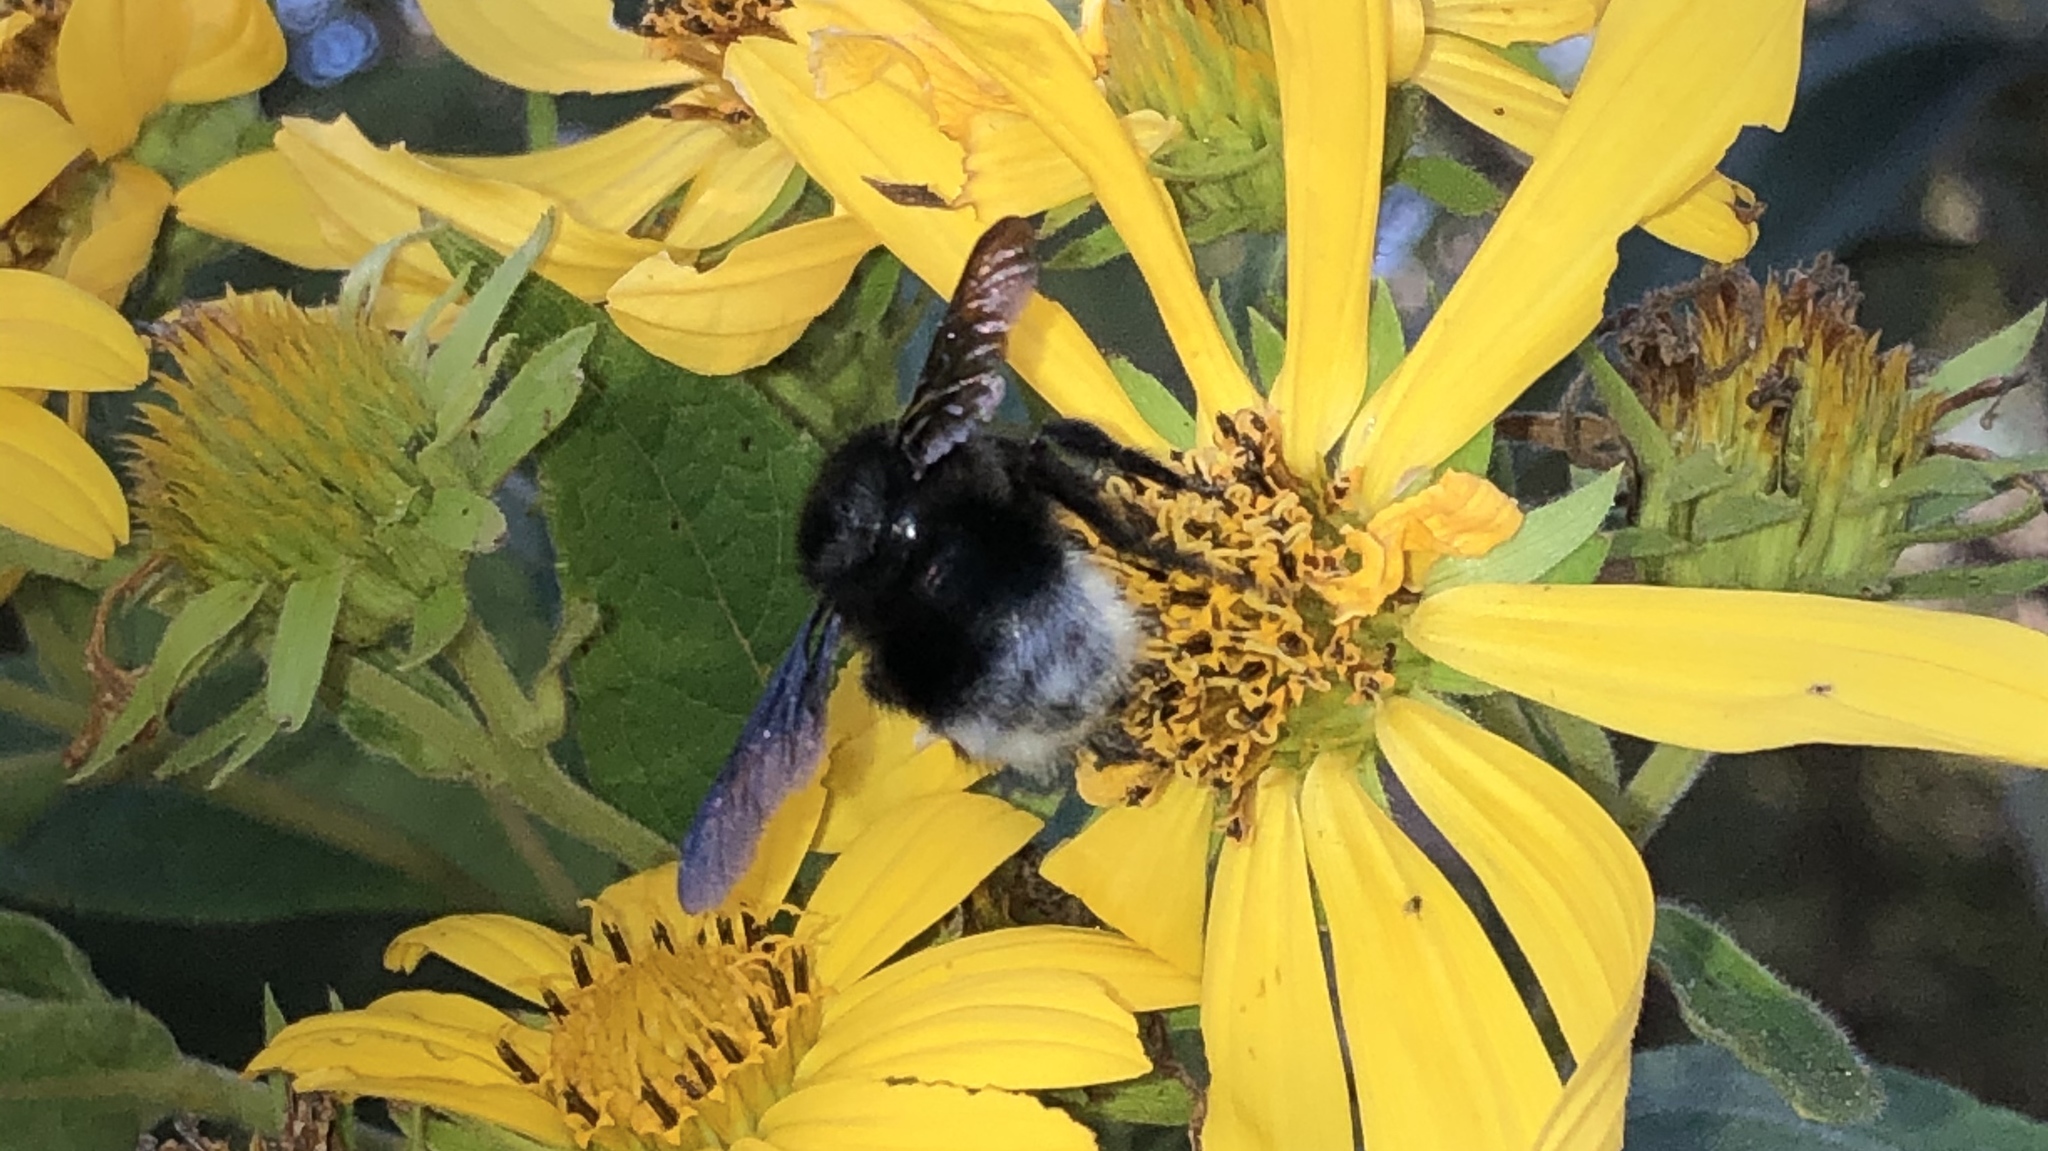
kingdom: Animalia
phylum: Arthropoda
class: Insecta
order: Hymenoptera
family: Apidae
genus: Bombus
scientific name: Bombus volucelloides
